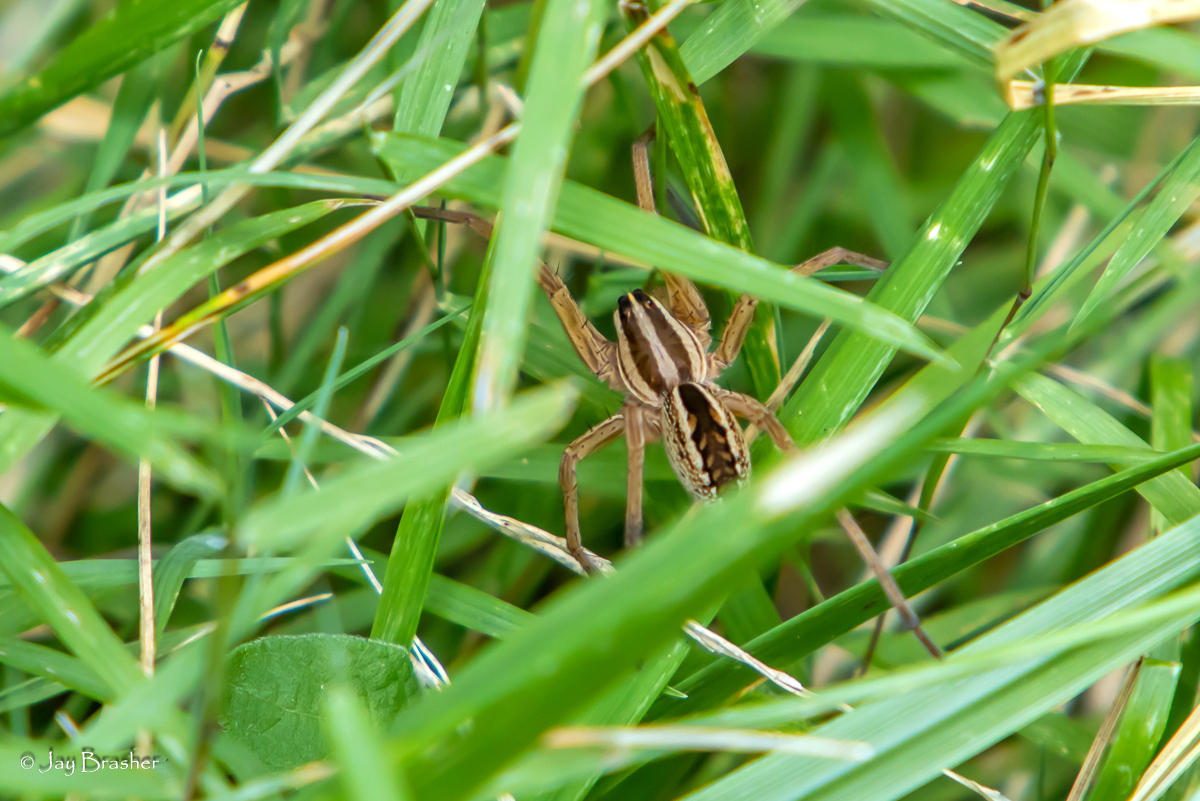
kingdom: Animalia
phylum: Arthropoda
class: Arachnida
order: Araneae
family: Lycosidae
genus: Rabidosa
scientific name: Rabidosa rabida
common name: Rabid wolf spider
